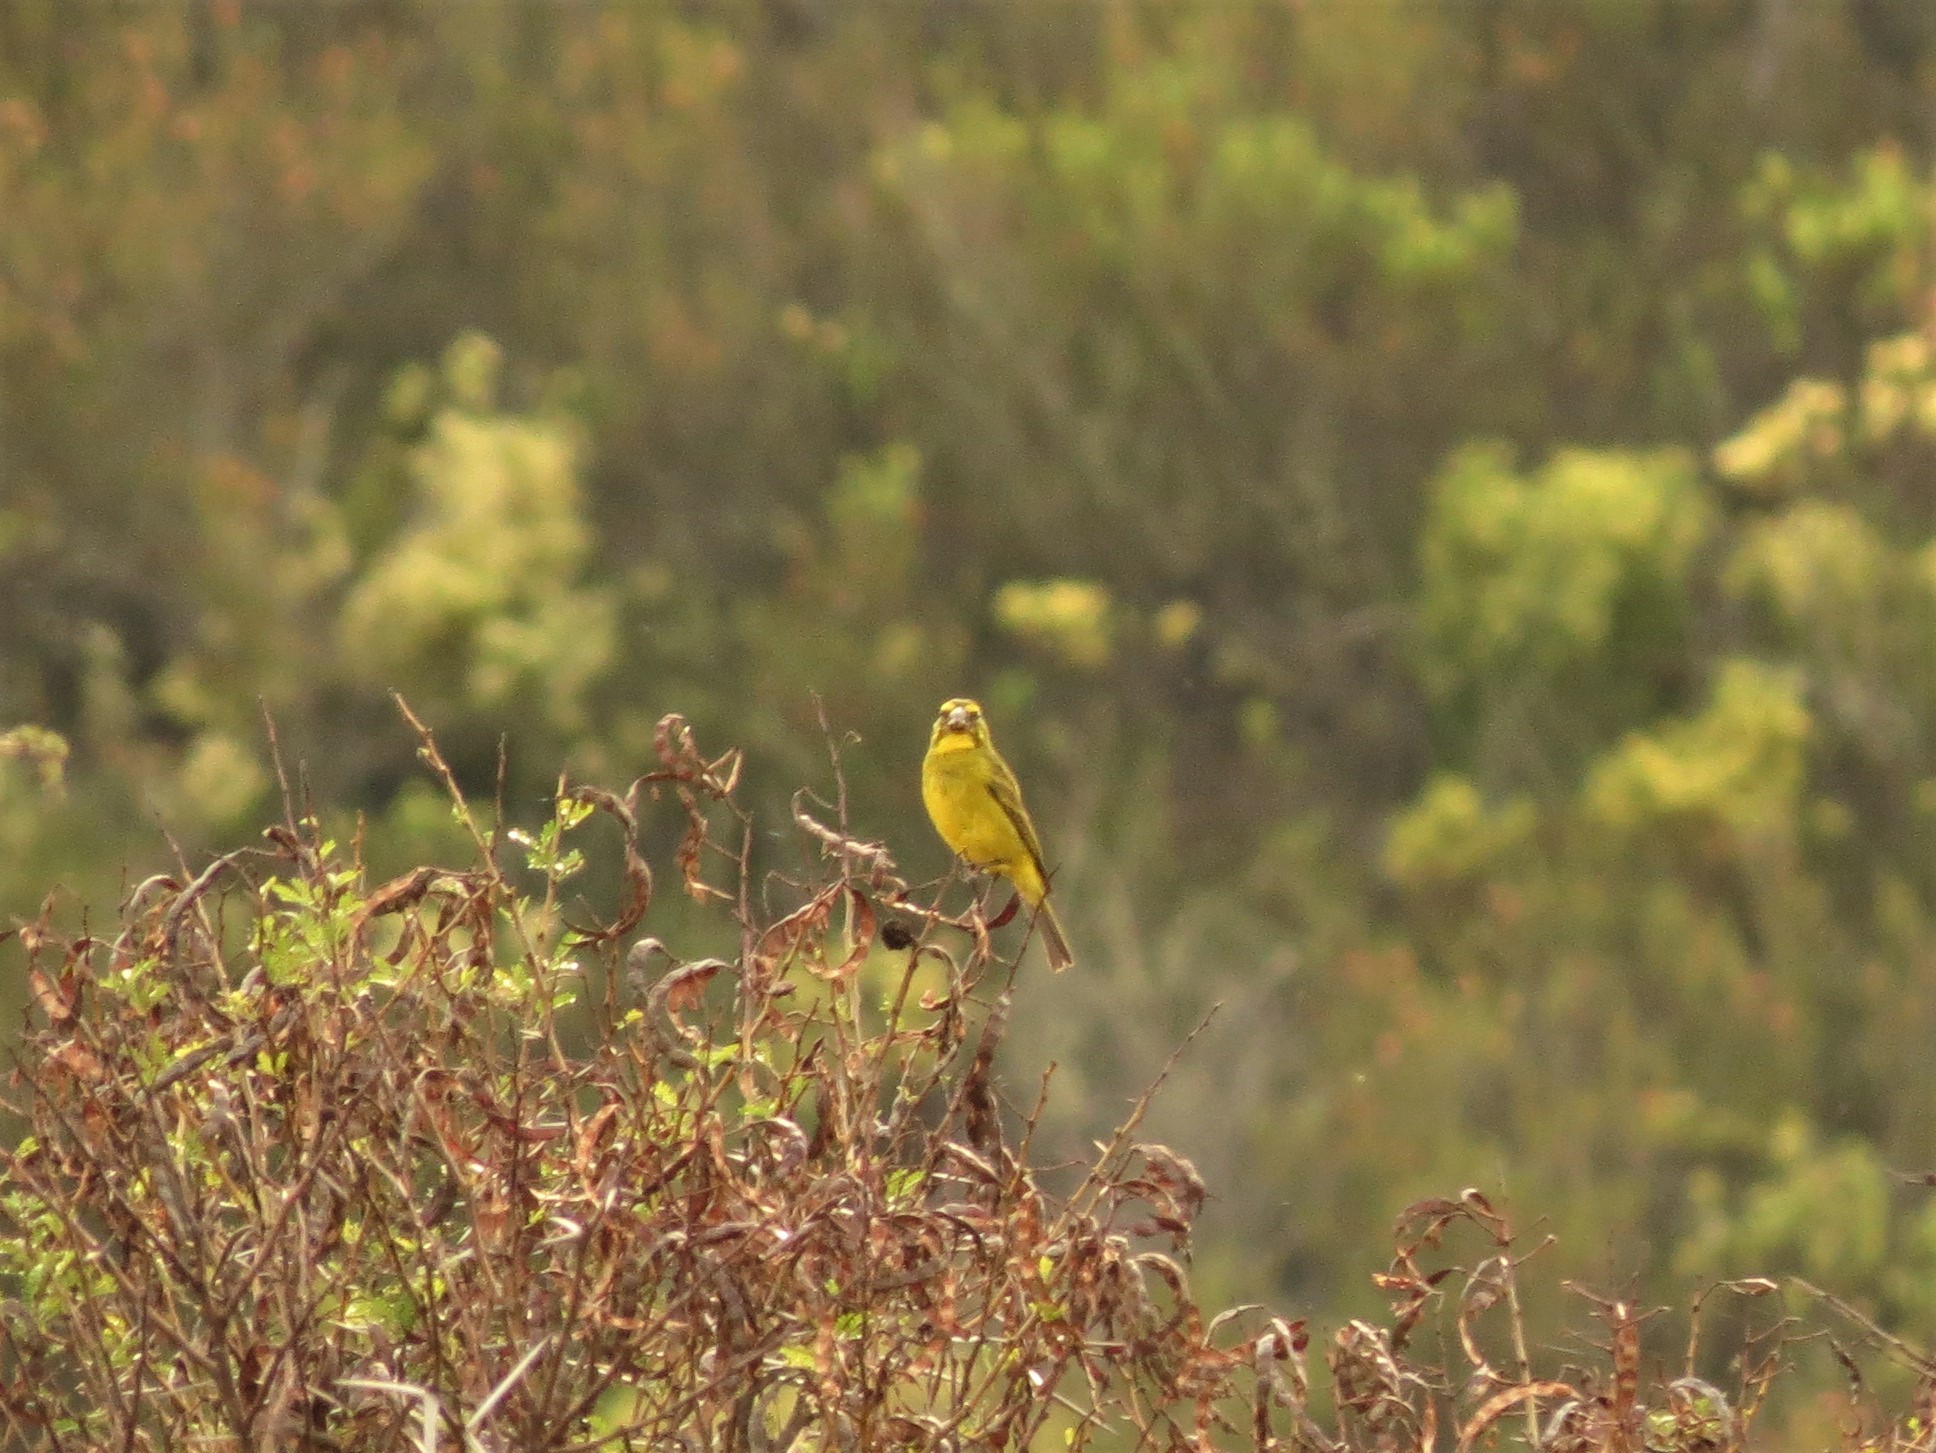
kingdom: Animalia
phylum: Chordata
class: Aves
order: Passeriformes
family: Fringillidae
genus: Crithagra
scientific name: Crithagra sulphurata
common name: Brimstone canary
